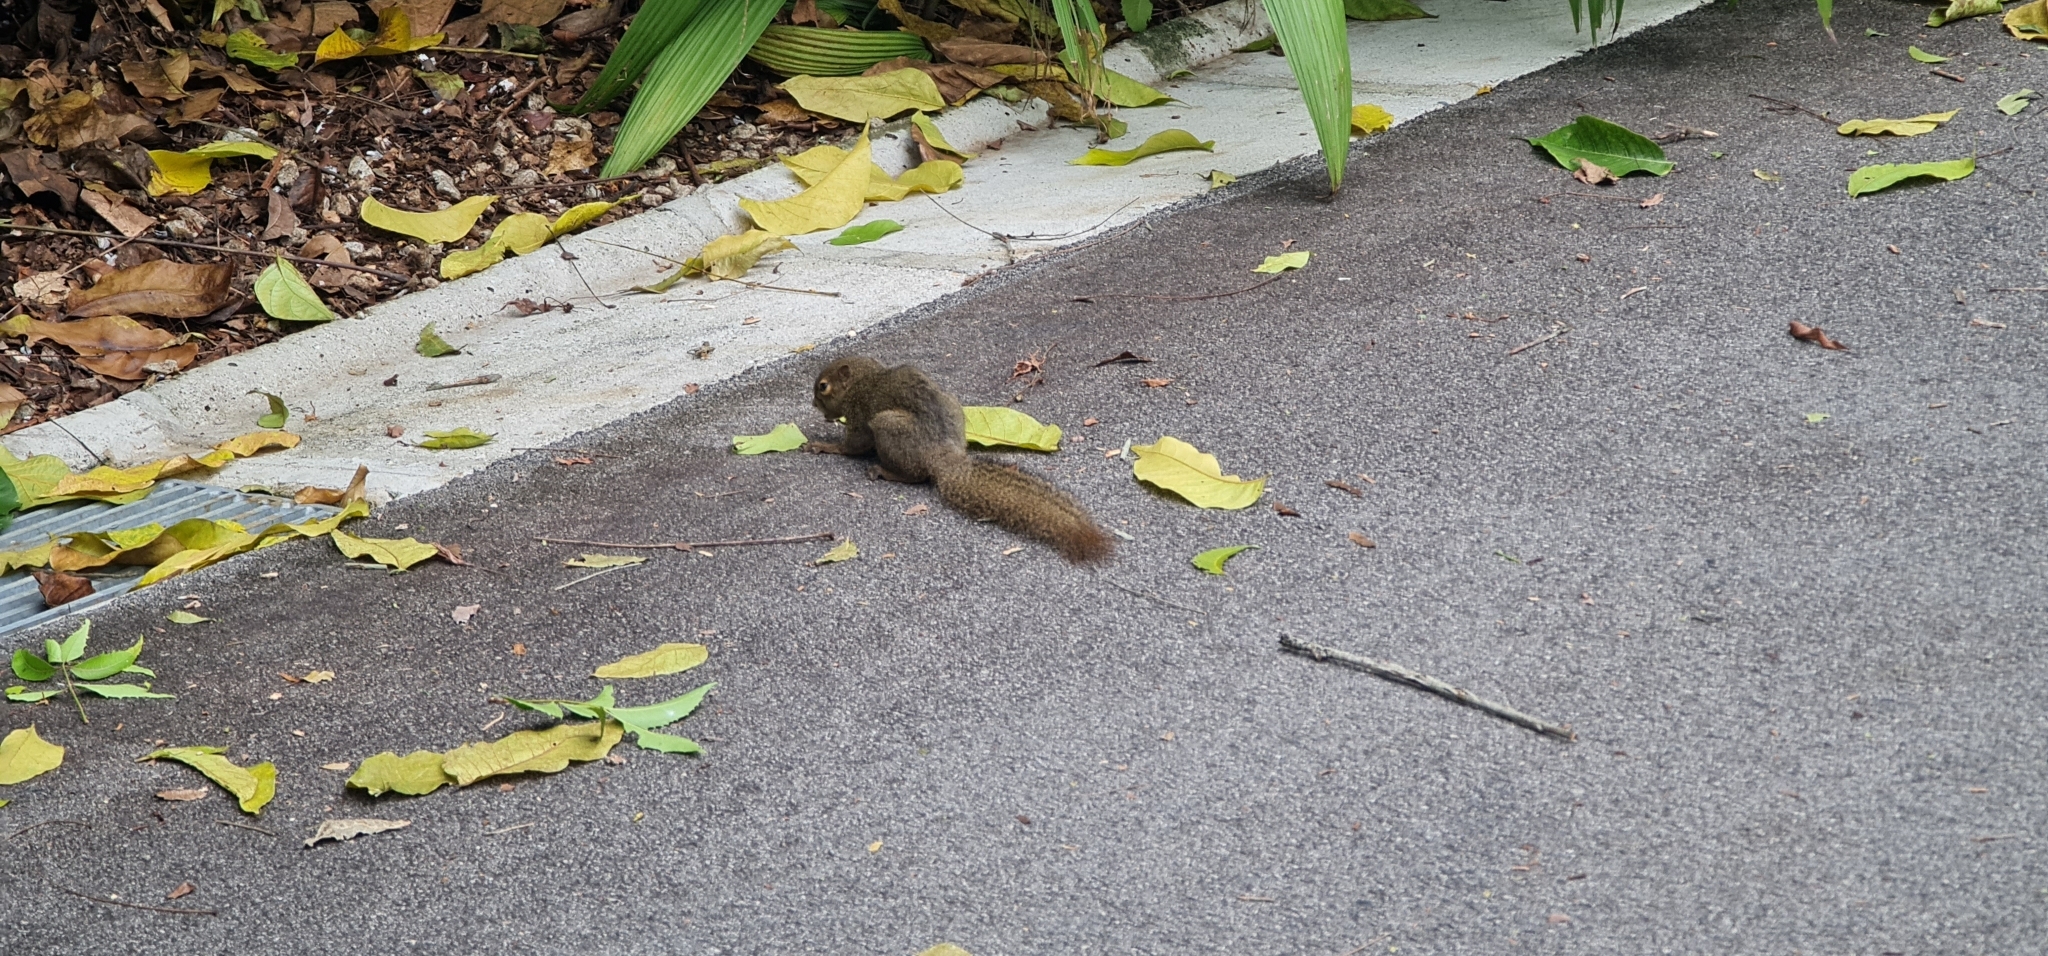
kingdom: Animalia
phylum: Chordata
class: Mammalia
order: Rodentia
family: Sciuridae
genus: Callosciurus
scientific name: Callosciurus notatus
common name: Plantain squirrel
